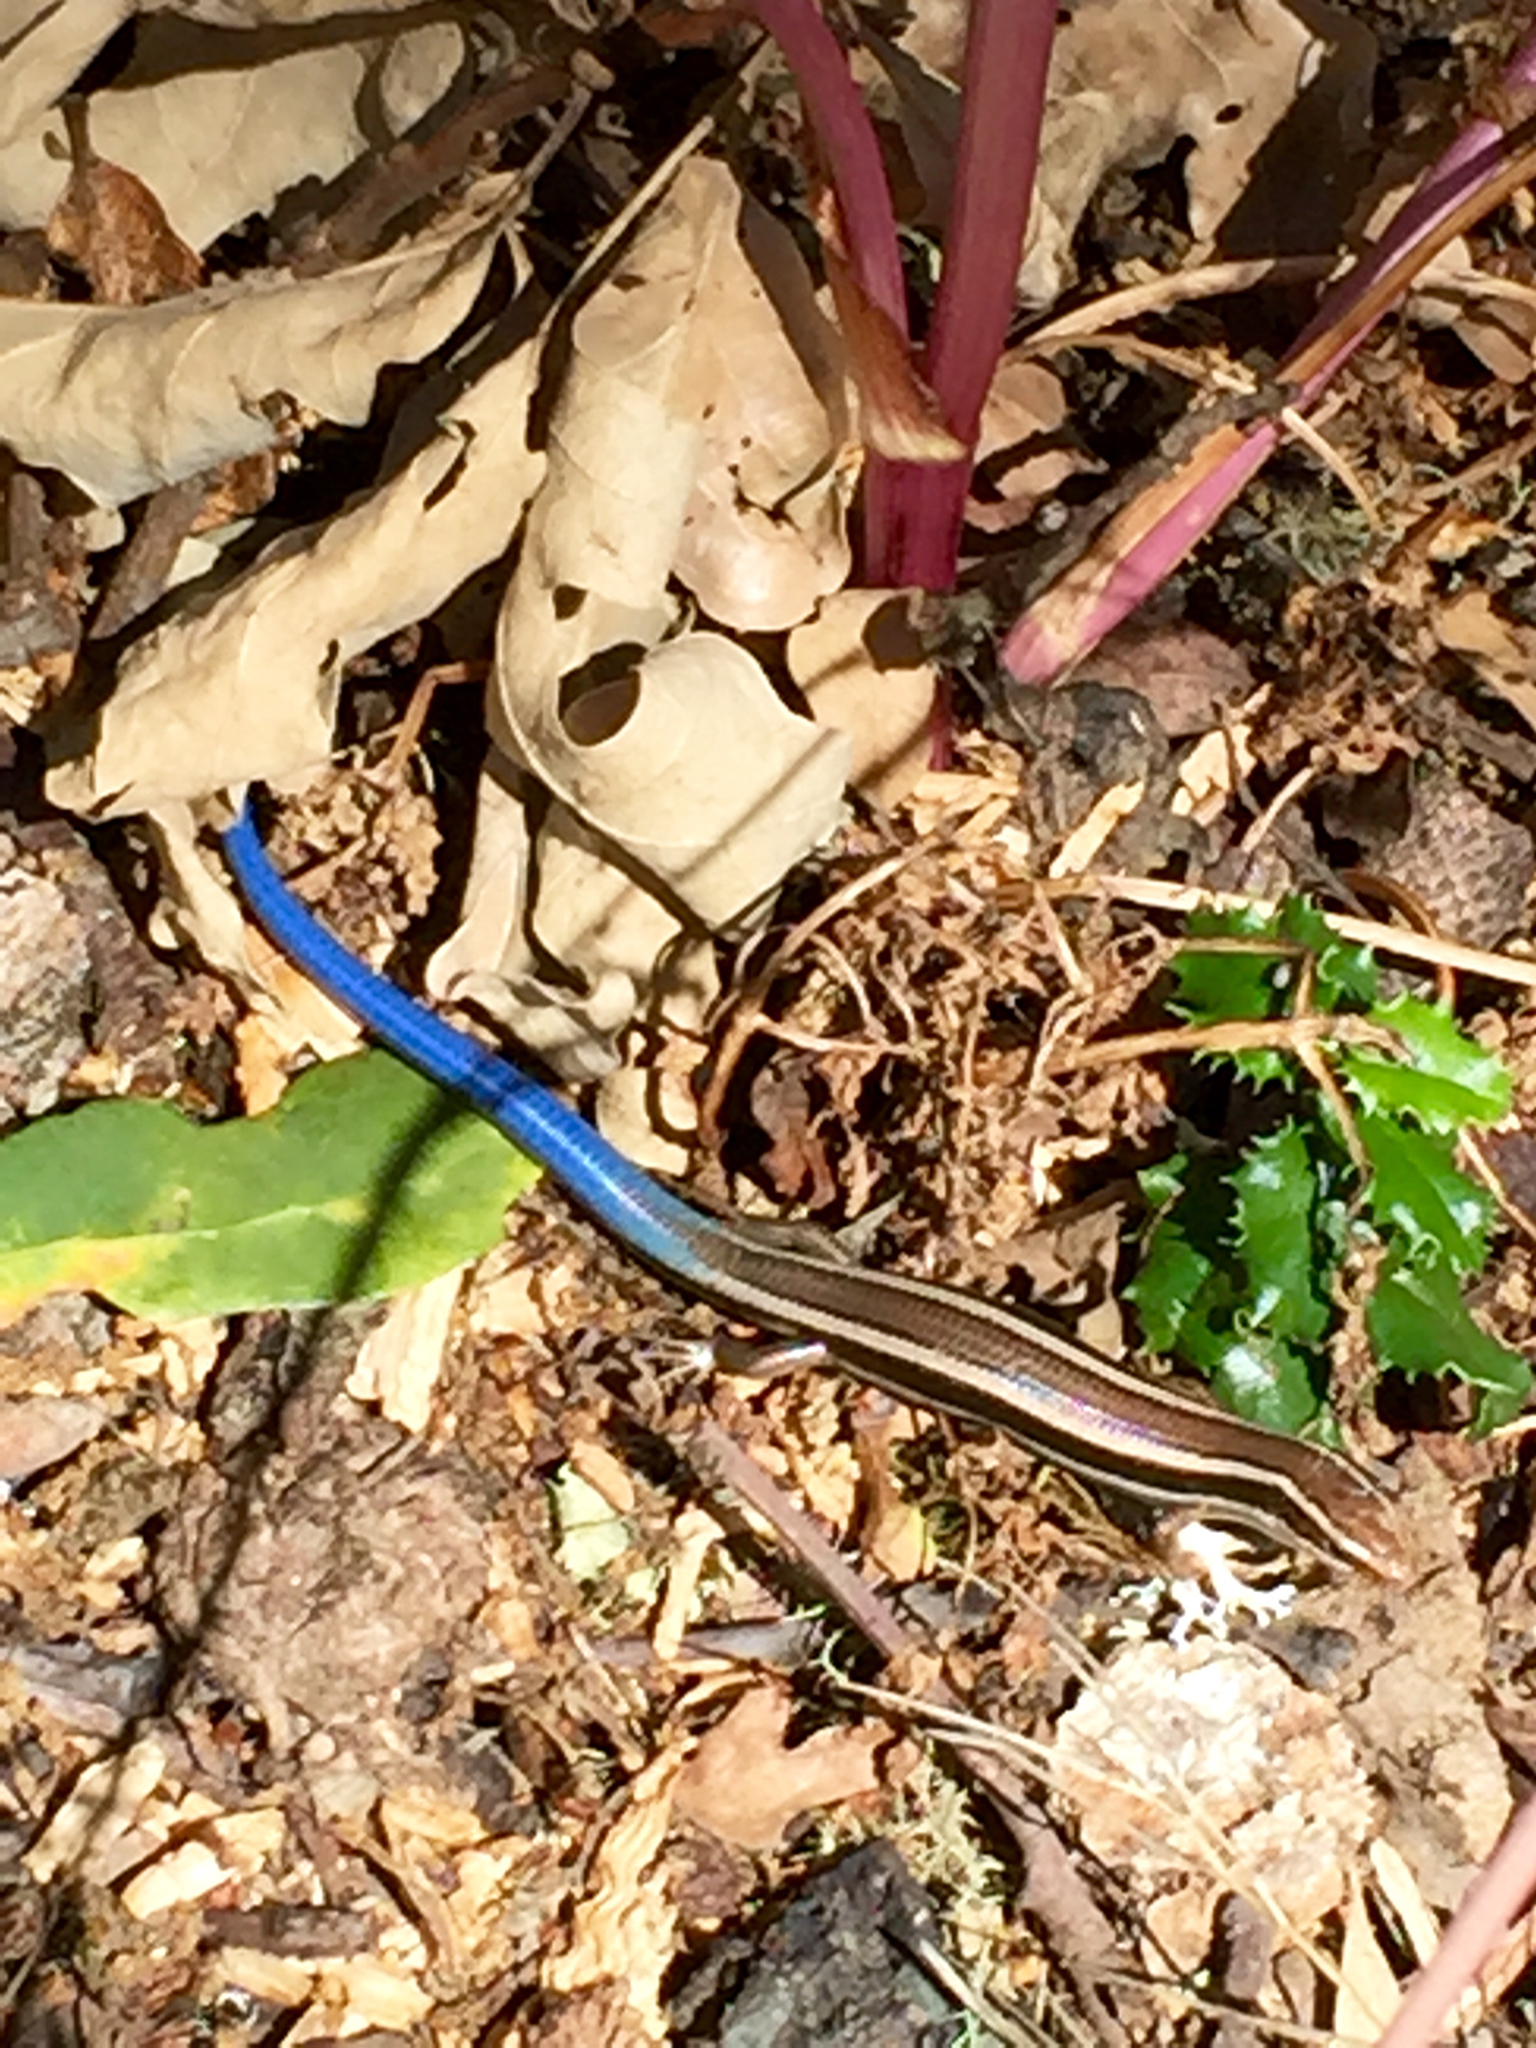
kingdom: Animalia
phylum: Chordata
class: Squamata
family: Scincidae
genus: Plestiodon
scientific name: Plestiodon skiltonianus
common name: Coronado island skink [interparietalis]
